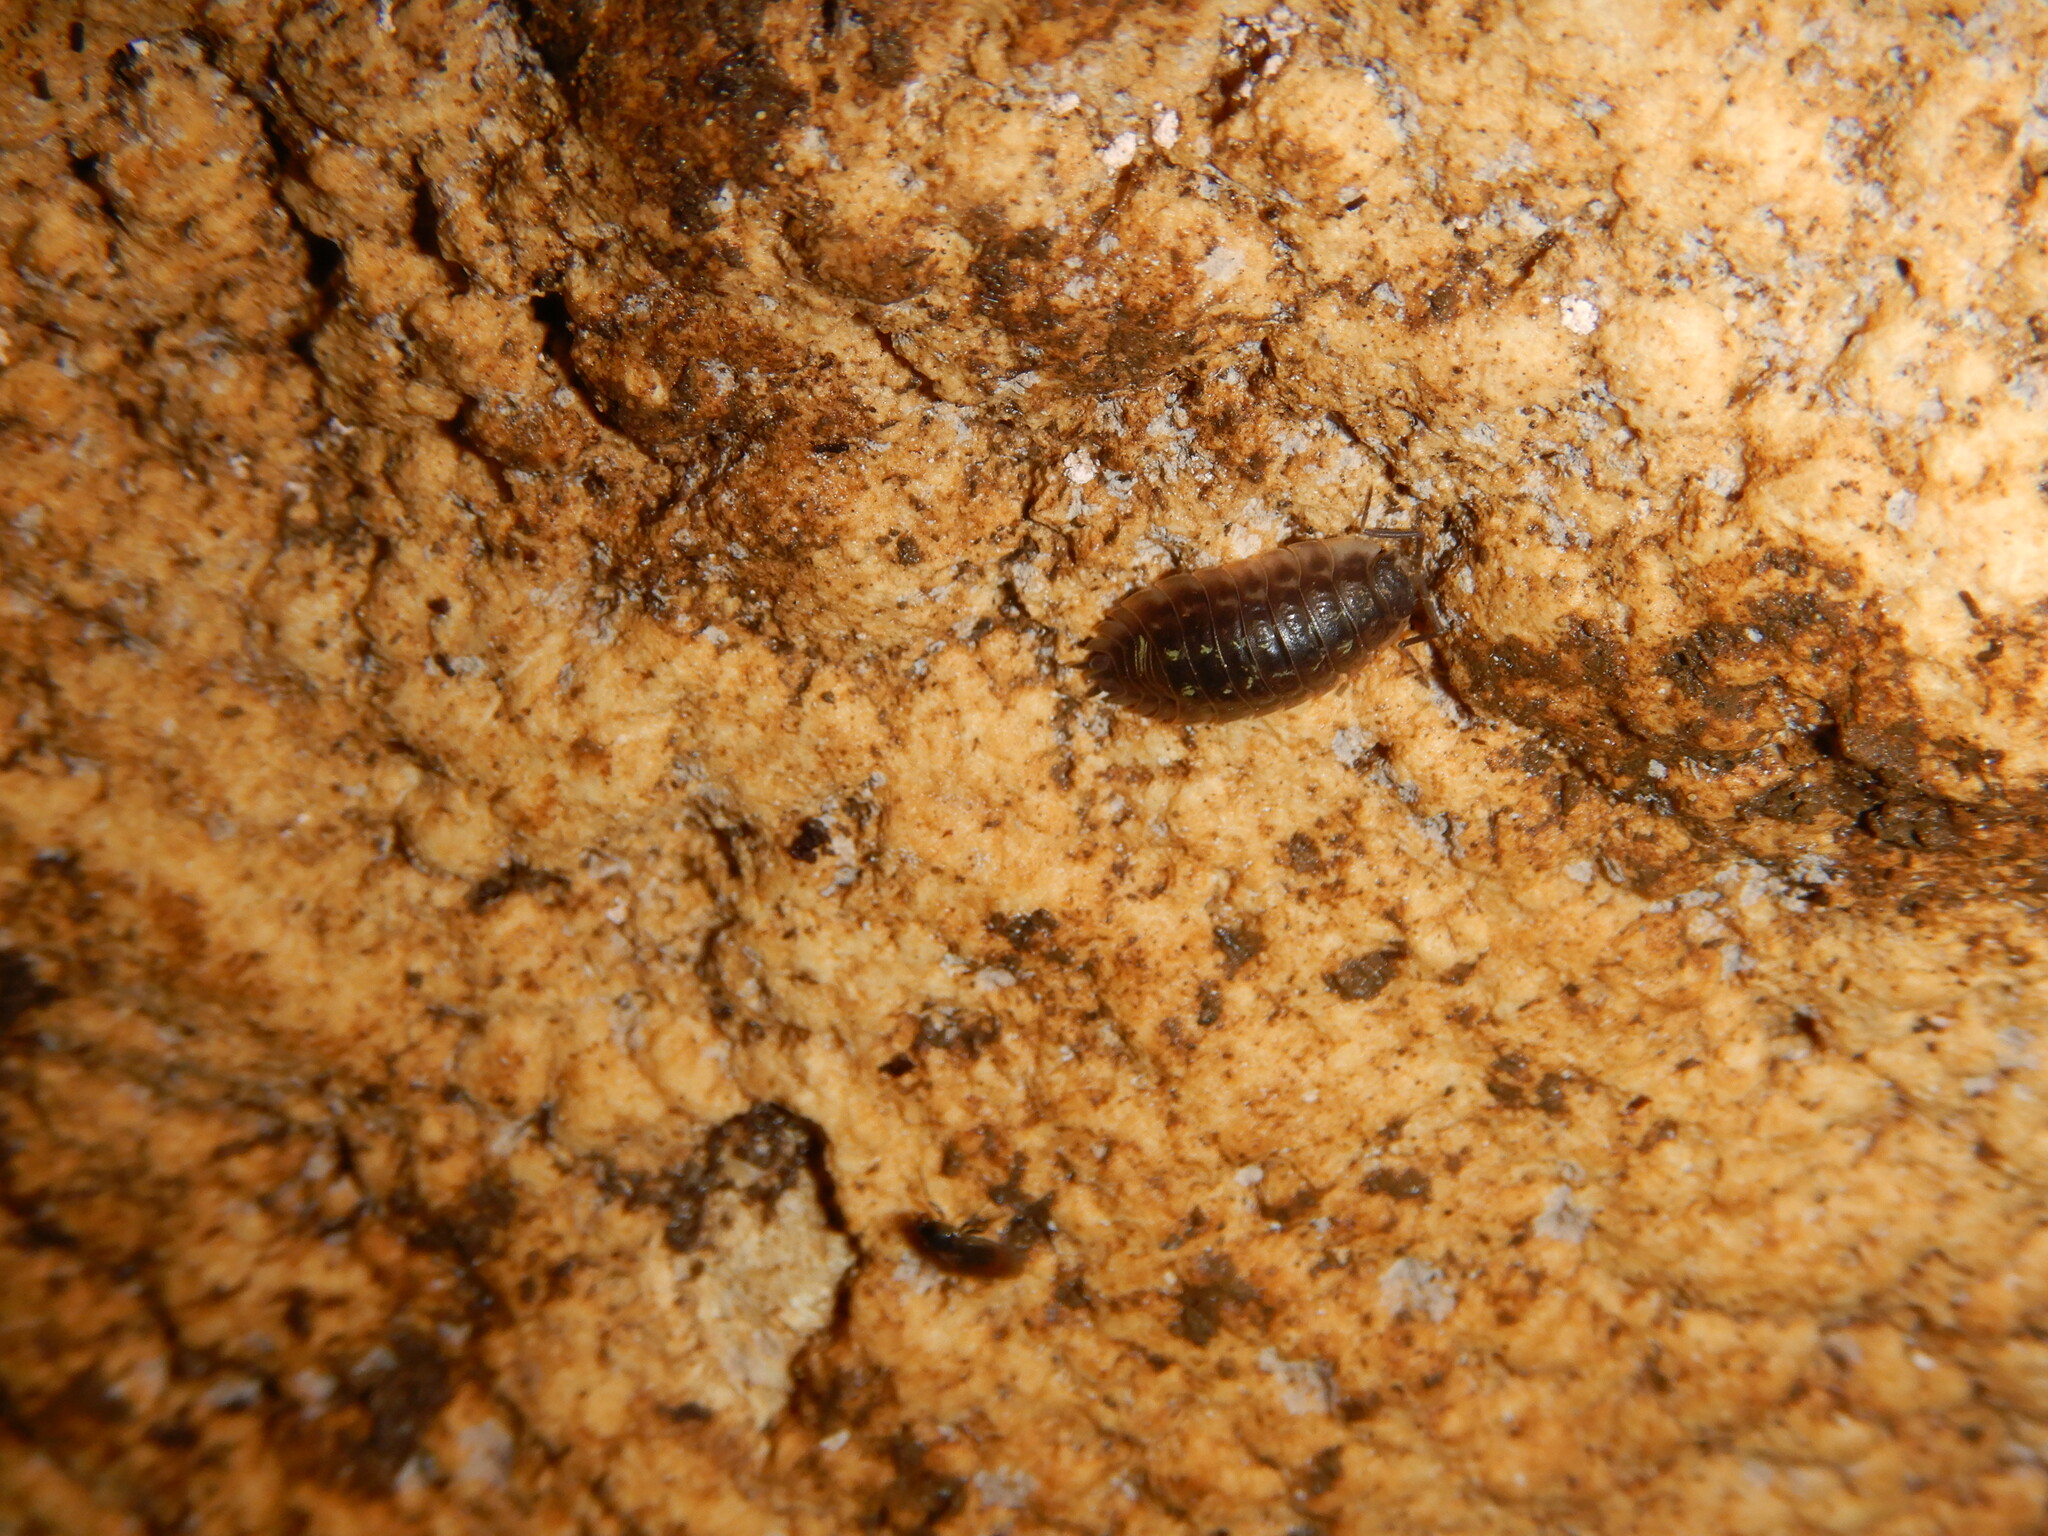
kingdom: Animalia
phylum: Arthropoda
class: Malacostraca
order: Isopoda
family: Oniscidae
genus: Oniscus
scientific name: Oniscus asellus
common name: Common shiny woodlouse
